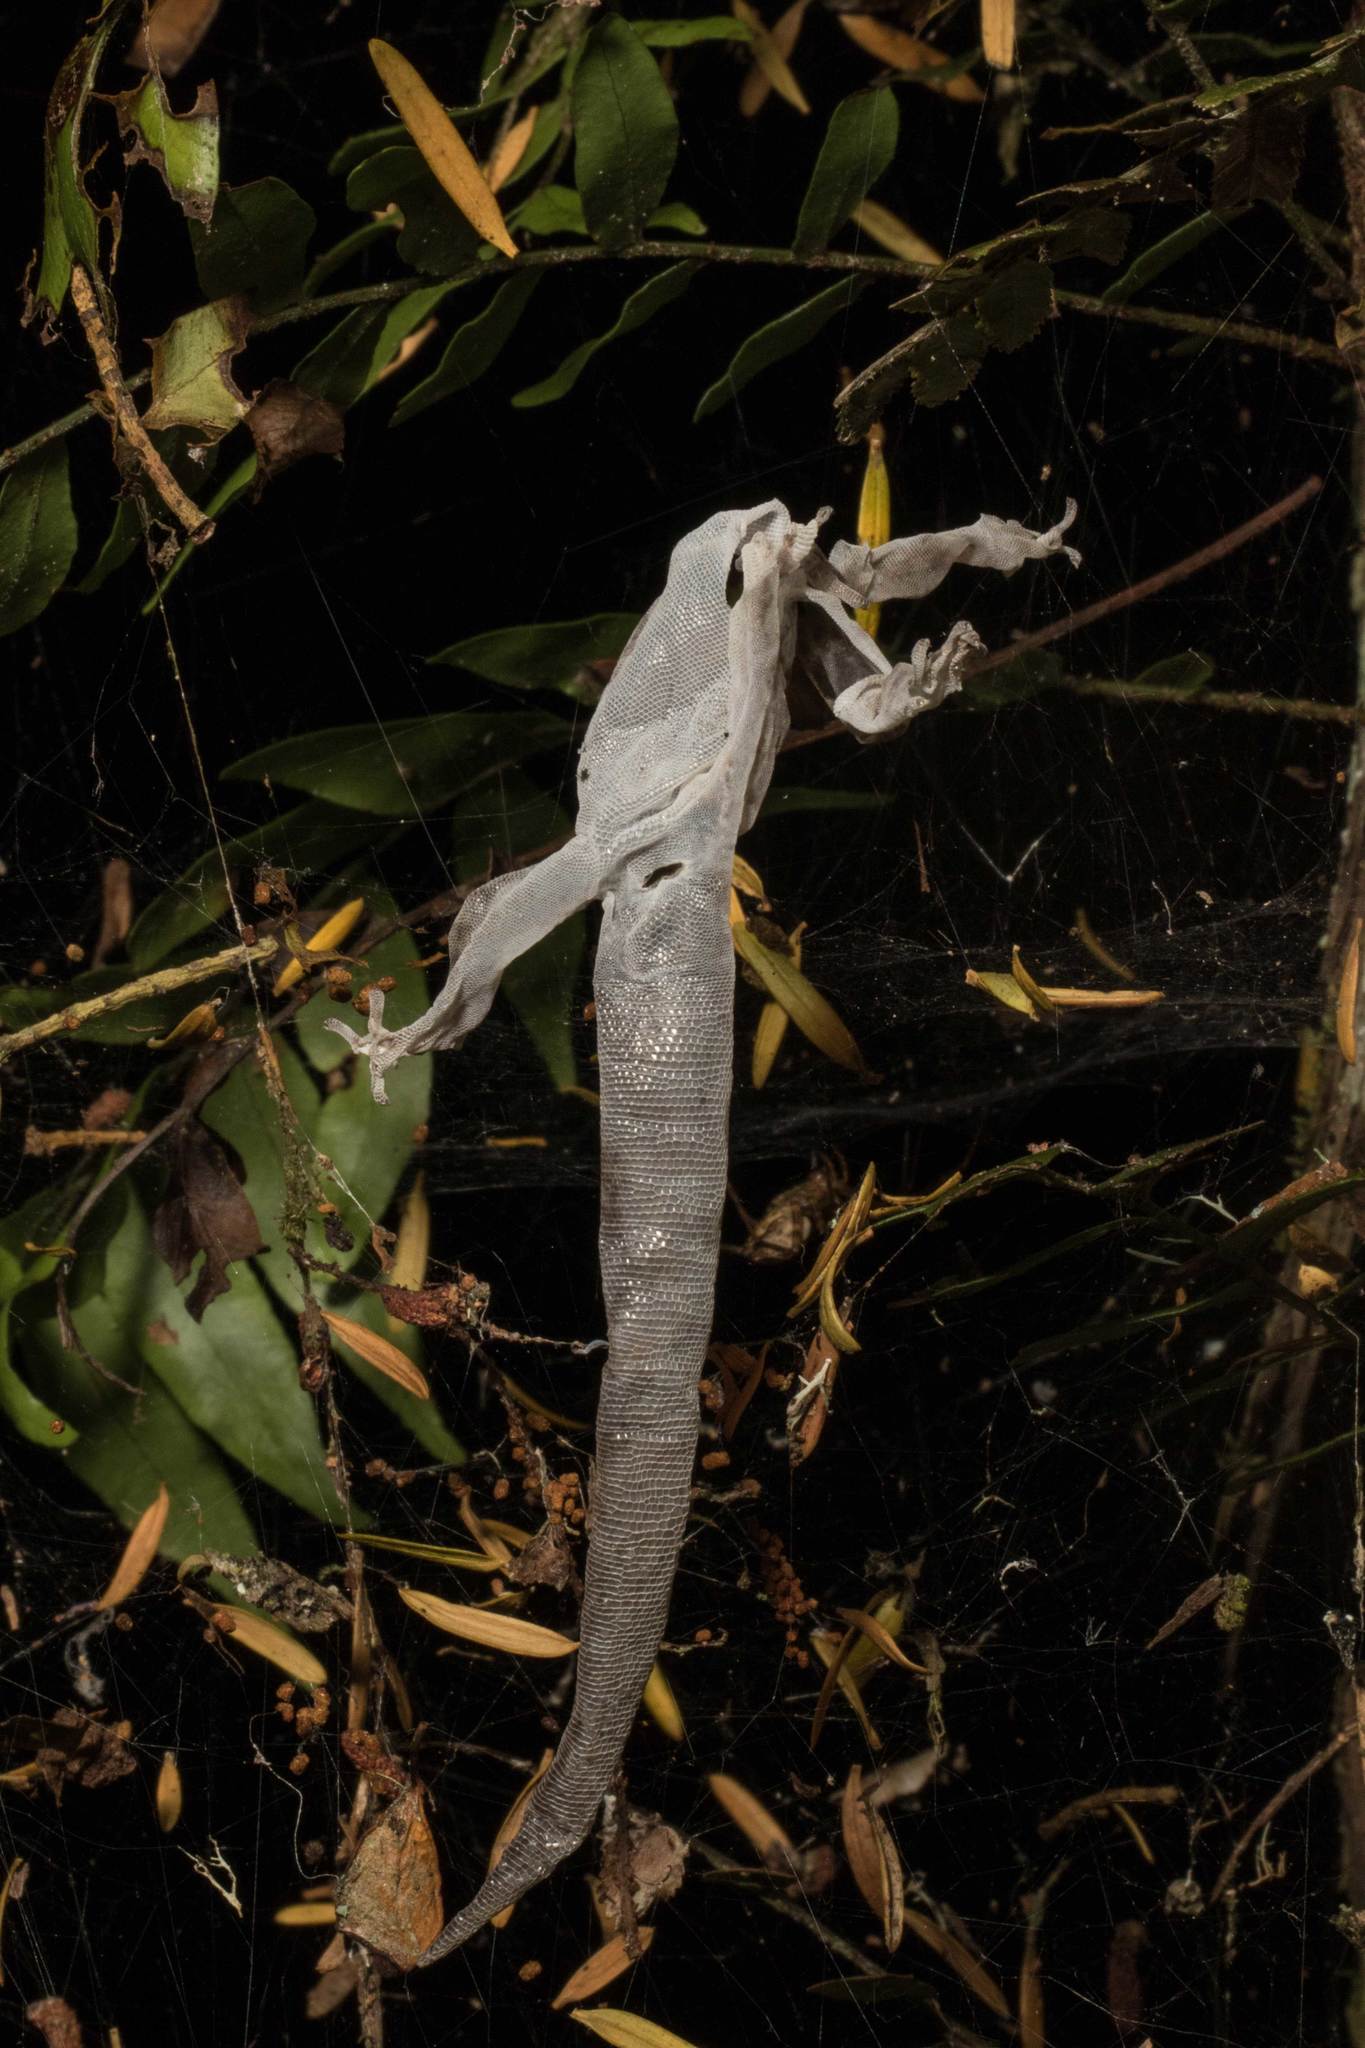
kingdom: Animalia
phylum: Chordata
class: Squamata
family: Diplodactylidae
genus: Dactylocnemis
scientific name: Dactylocnemis pacificus
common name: Pacific gecko
